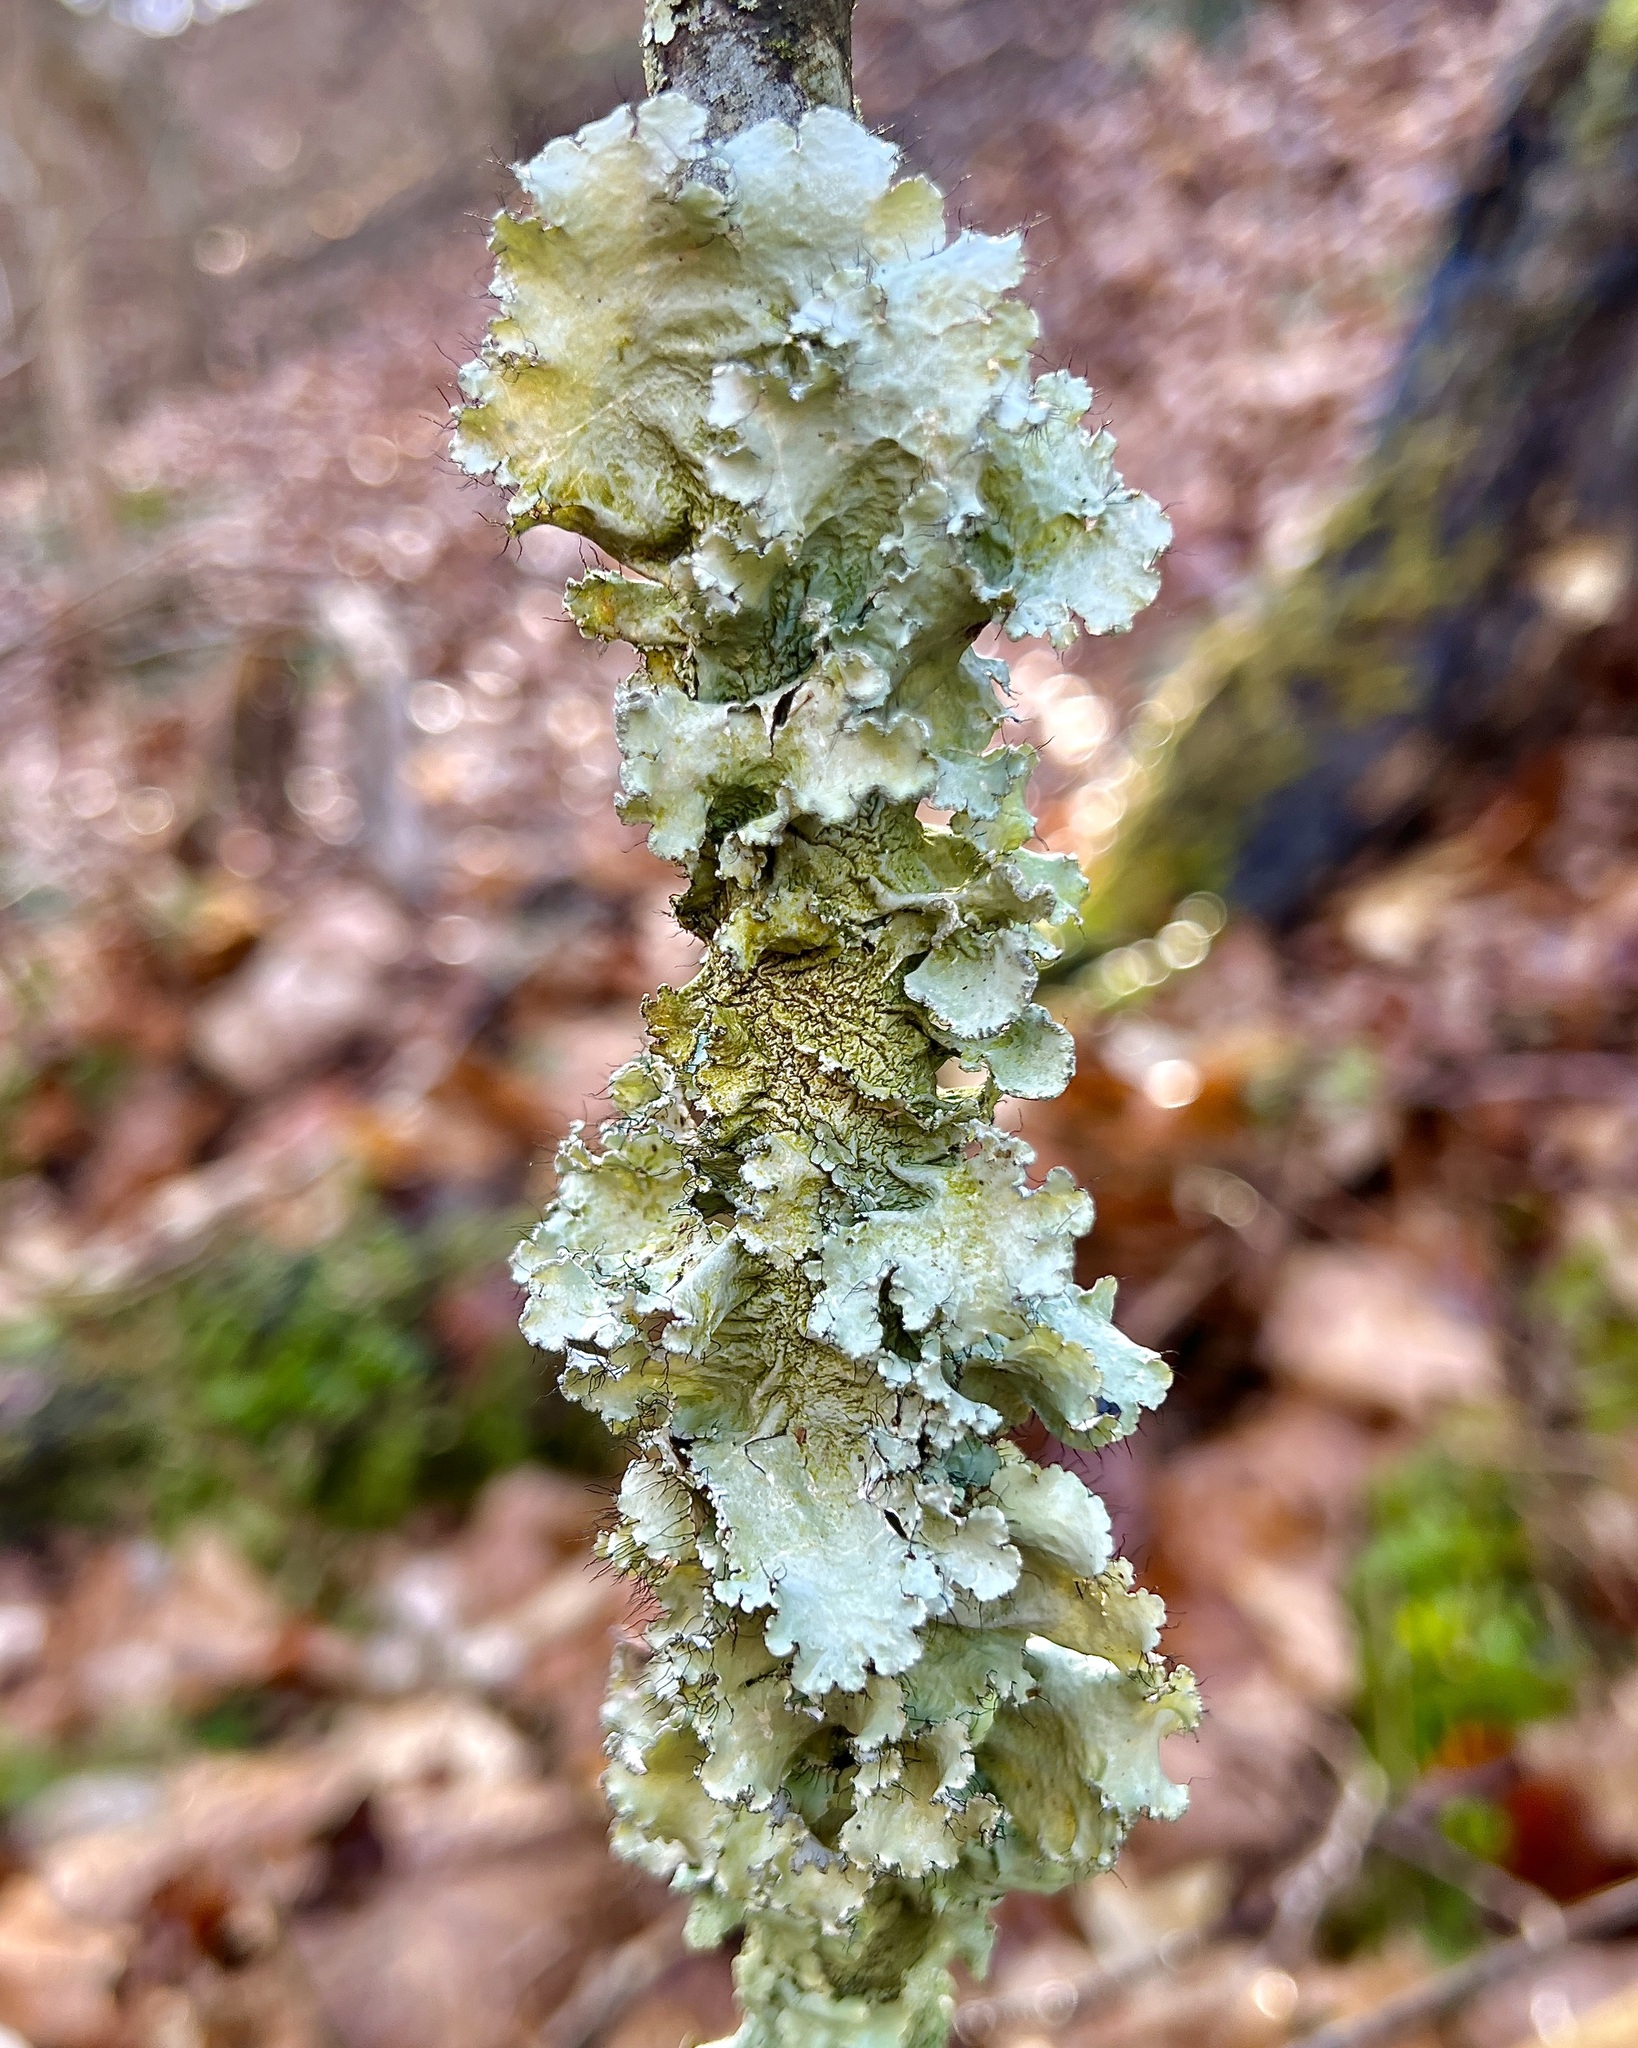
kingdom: Fungi
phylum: Ascomycota
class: Lecanoromycetes
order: Lecanorales
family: Parmeliaceae
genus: Parmotrema
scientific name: Parmotrema hypotropum
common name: Powdered ruffle lichen
